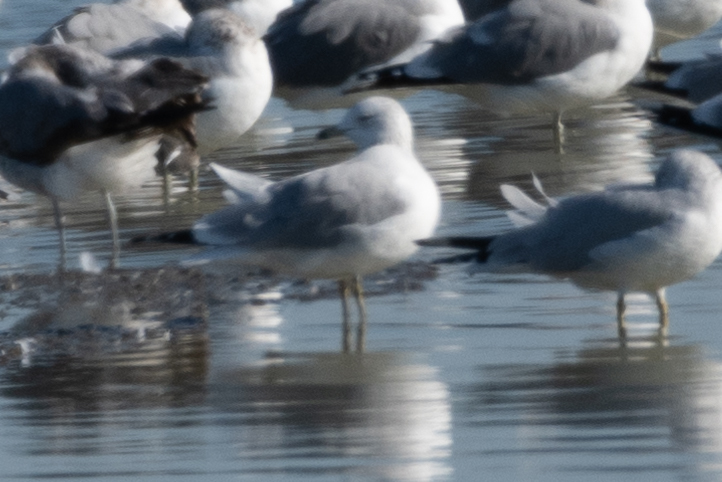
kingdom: Animalia
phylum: Chordata
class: Aves
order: Charadriiformes
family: Laridae
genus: Larus
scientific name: Larus delawarensis
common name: Ring-billed gull
